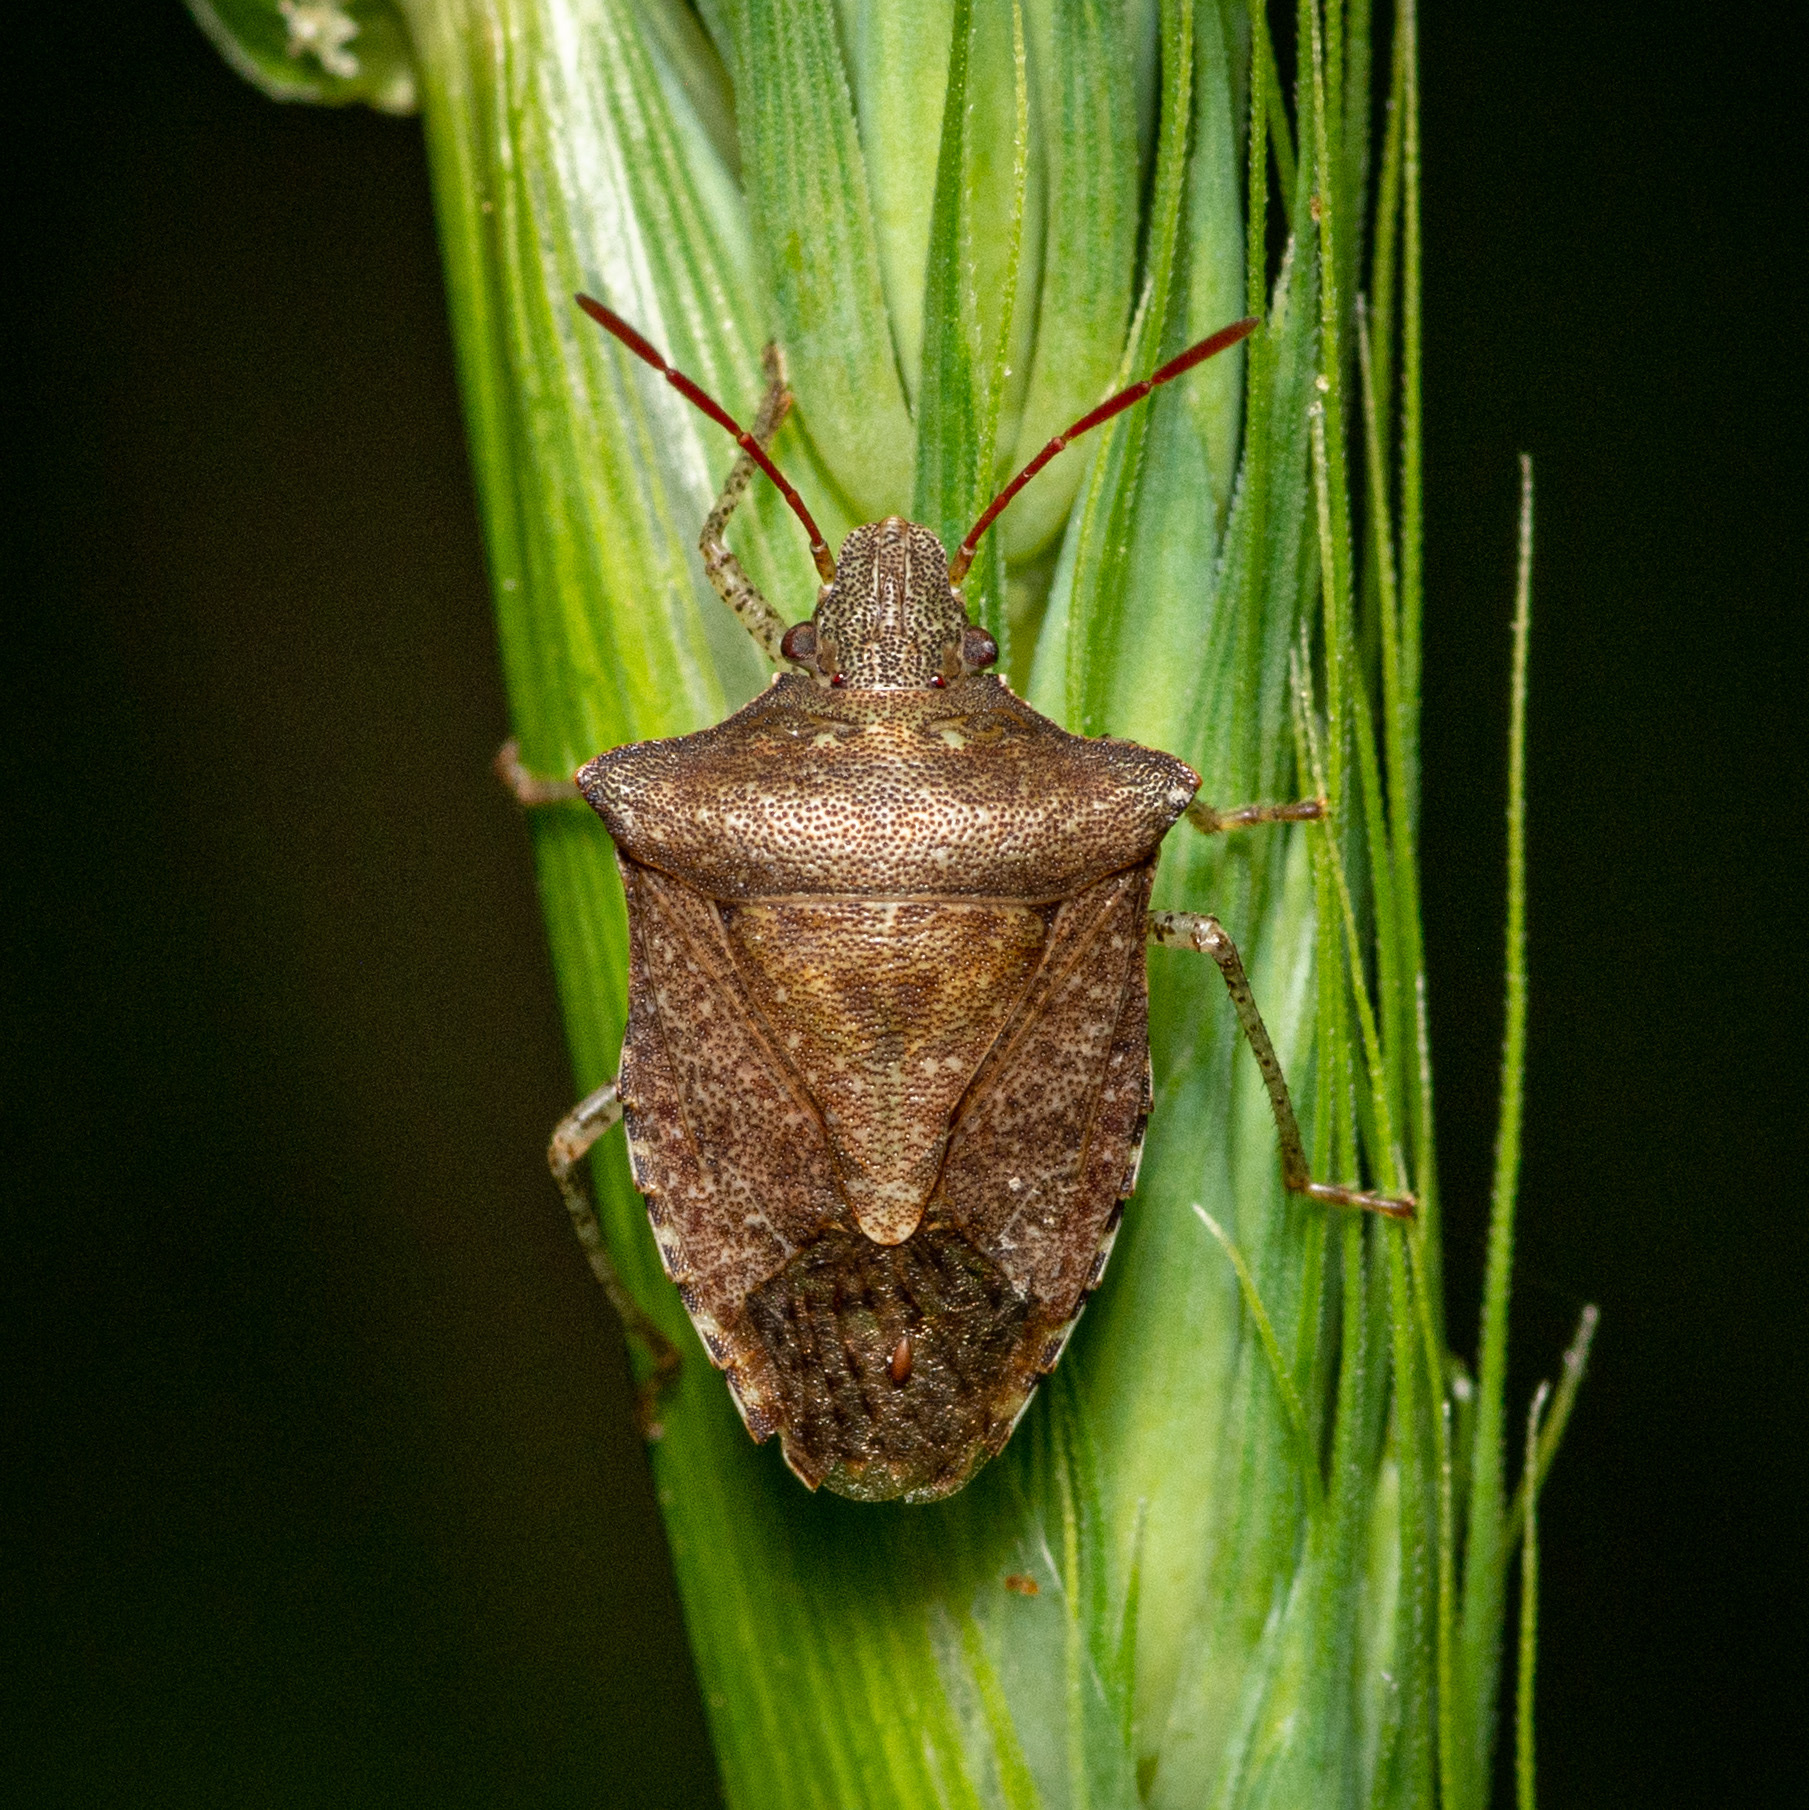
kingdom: Animalia
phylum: Arthropoda
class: Insecta
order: Hemiptera
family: Pentatomidae
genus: Euschistus
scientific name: Euschistus
